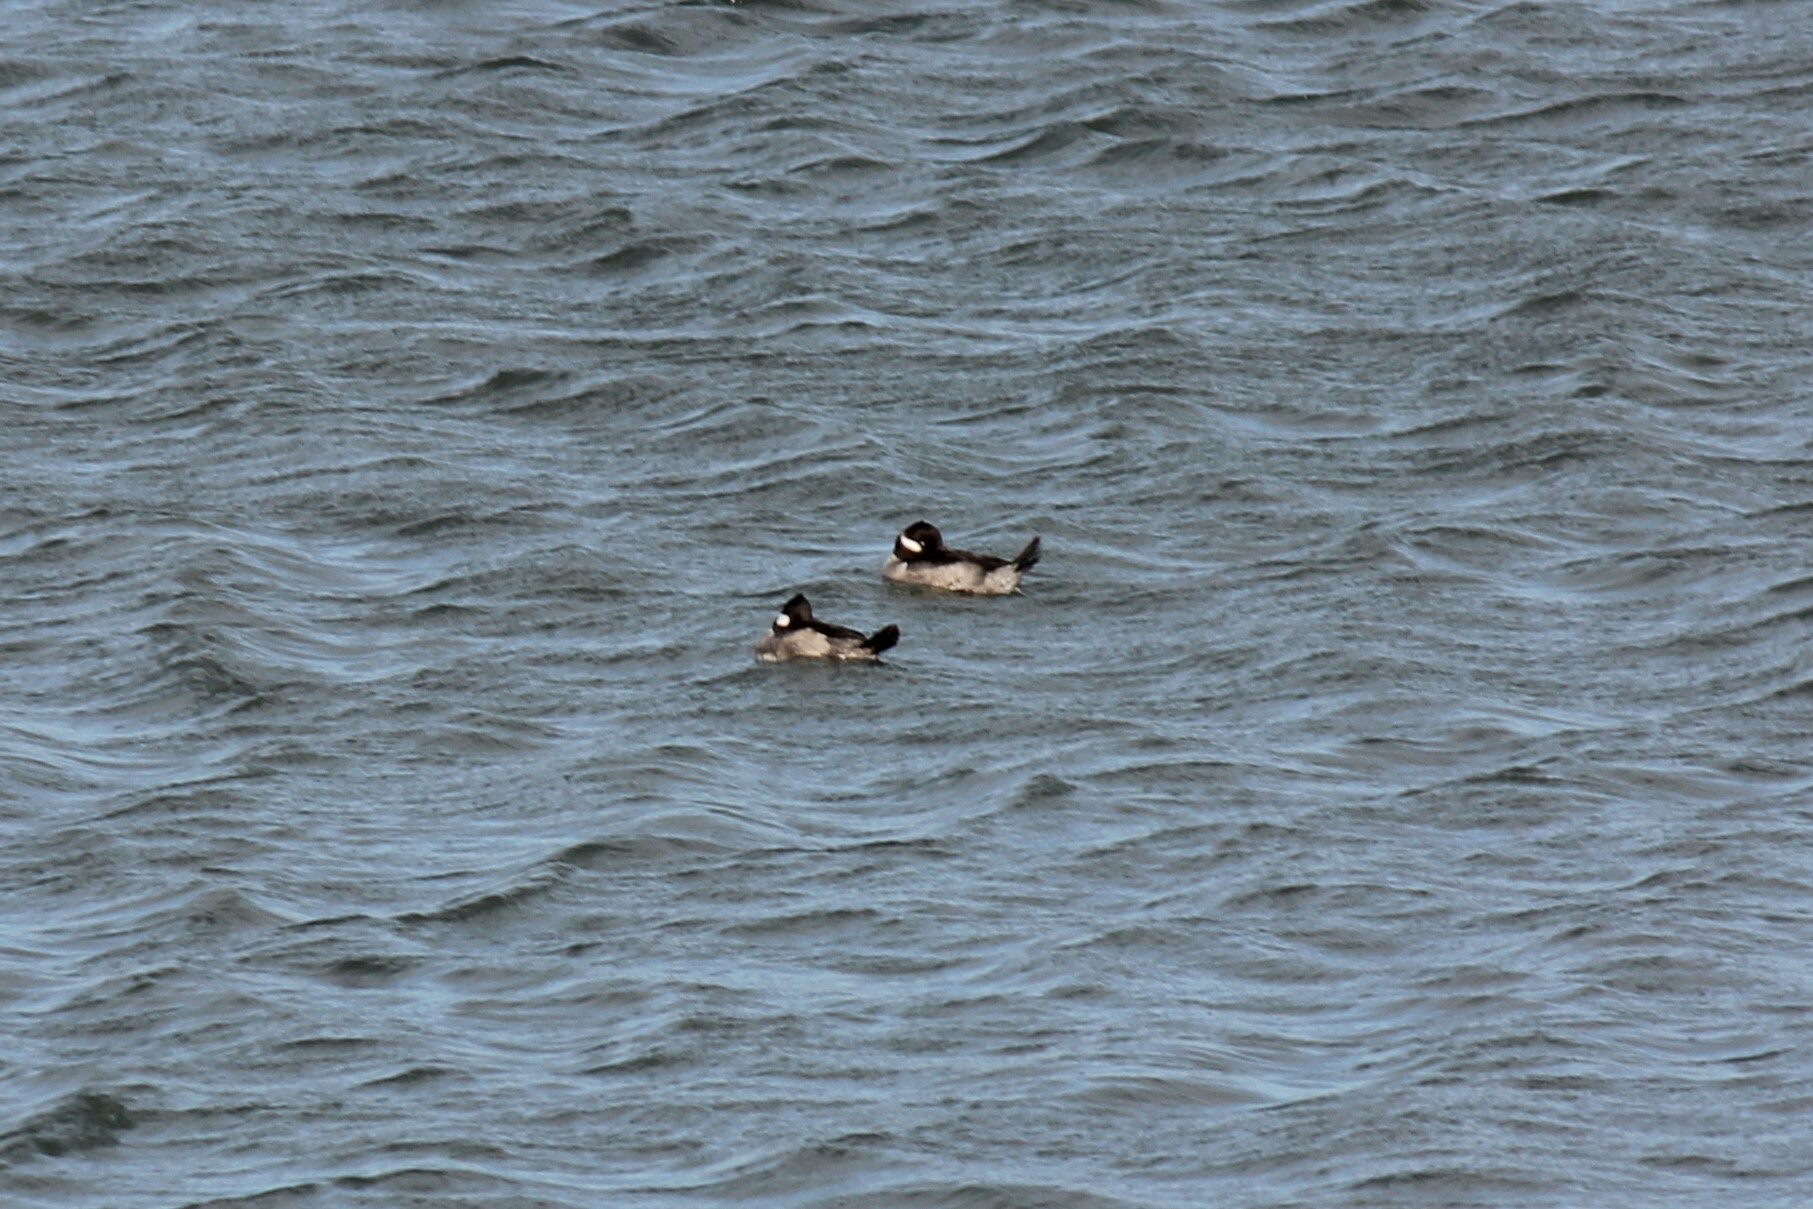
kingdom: Animalia
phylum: Chordata
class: Aves
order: Anseriformes
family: Anatidae
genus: Bucephala
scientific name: Bucephala albeola
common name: Bufflehead
